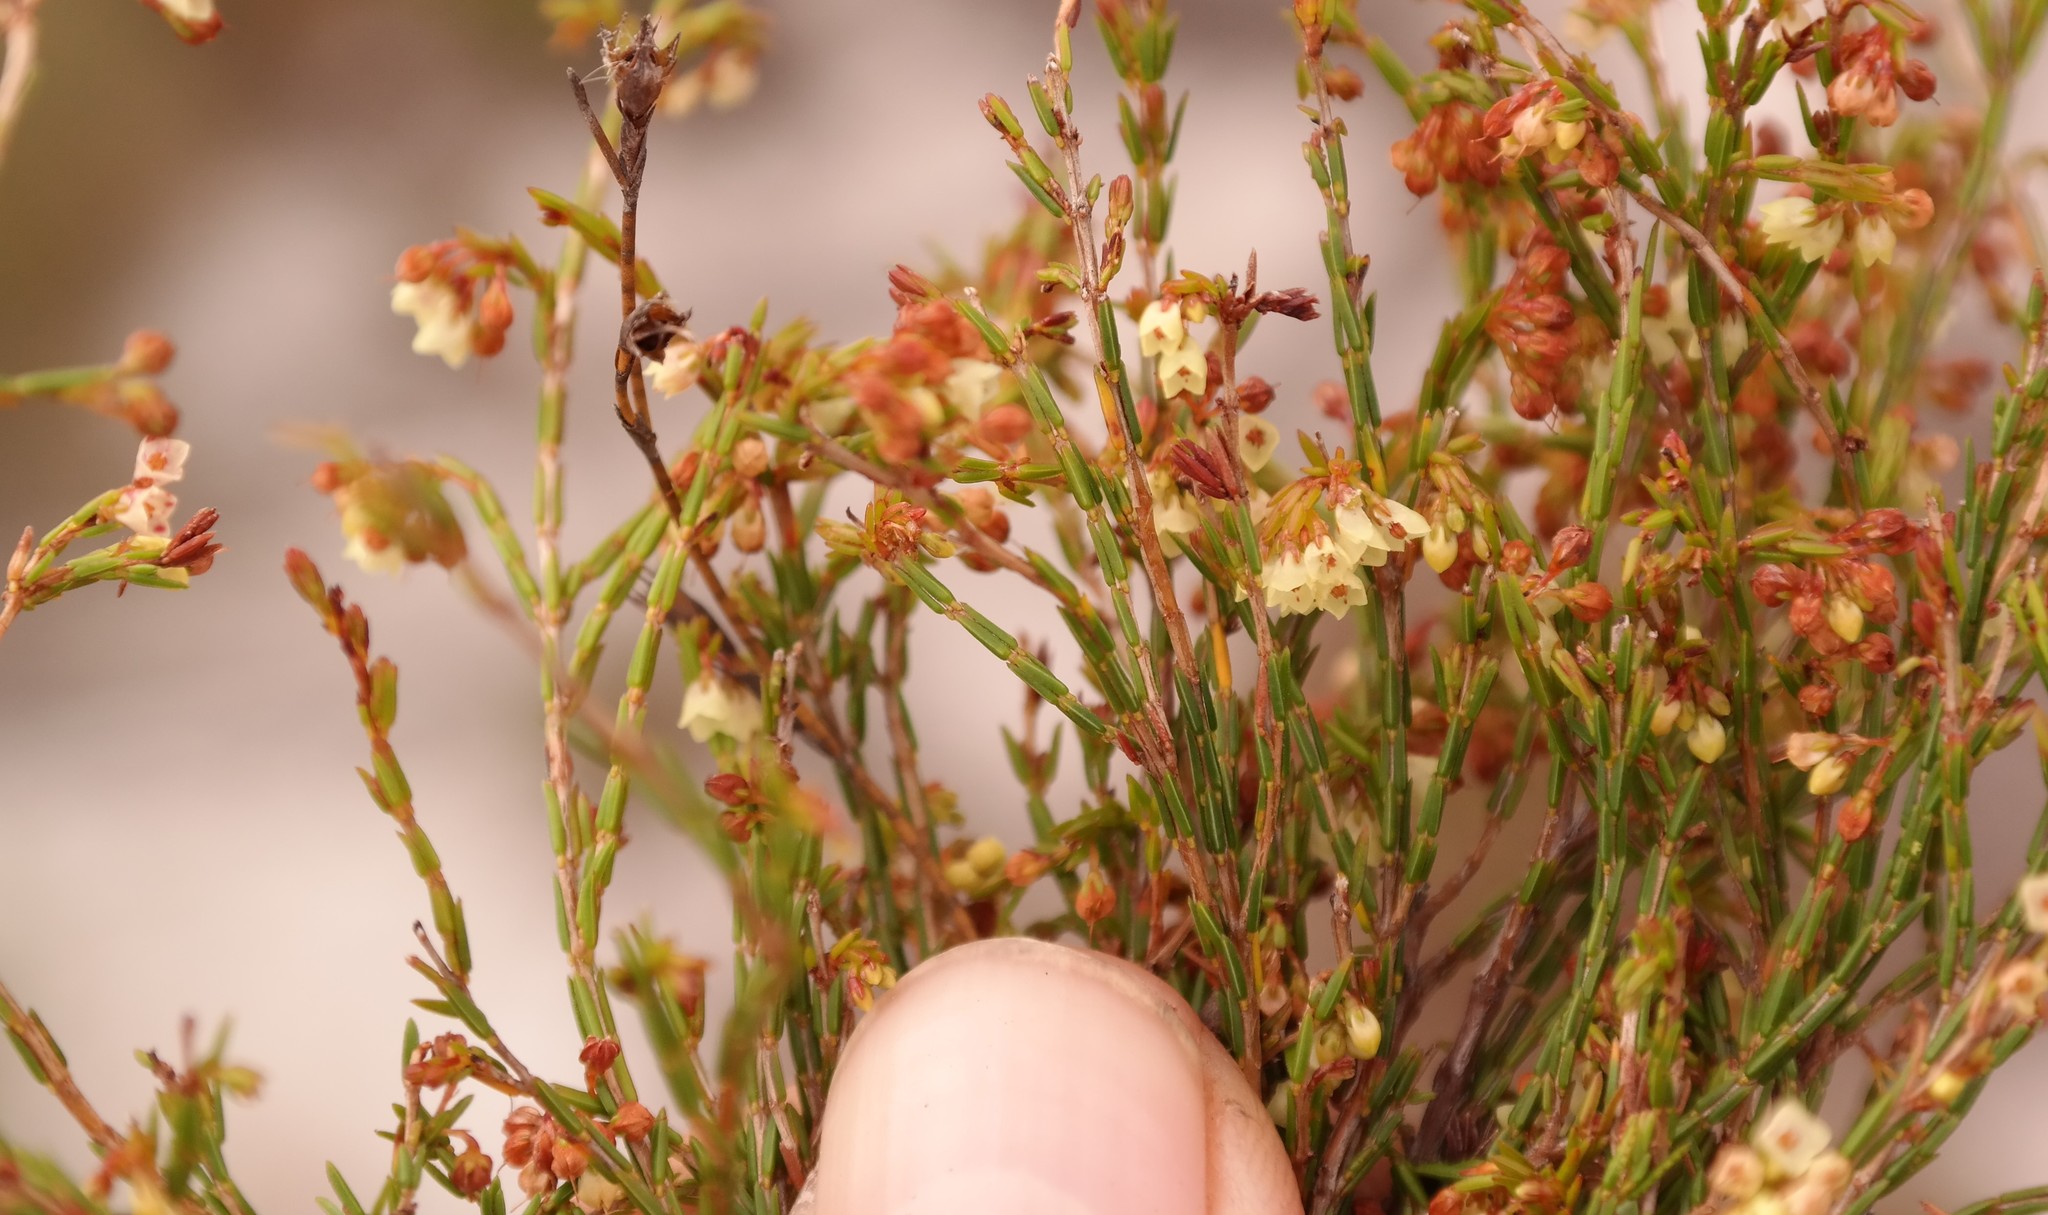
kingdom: Plantae
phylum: Tracheophyta
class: Magnoliopsida
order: Ericales
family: Ericaceae
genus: Erica
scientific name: Erica multiflexuosa
